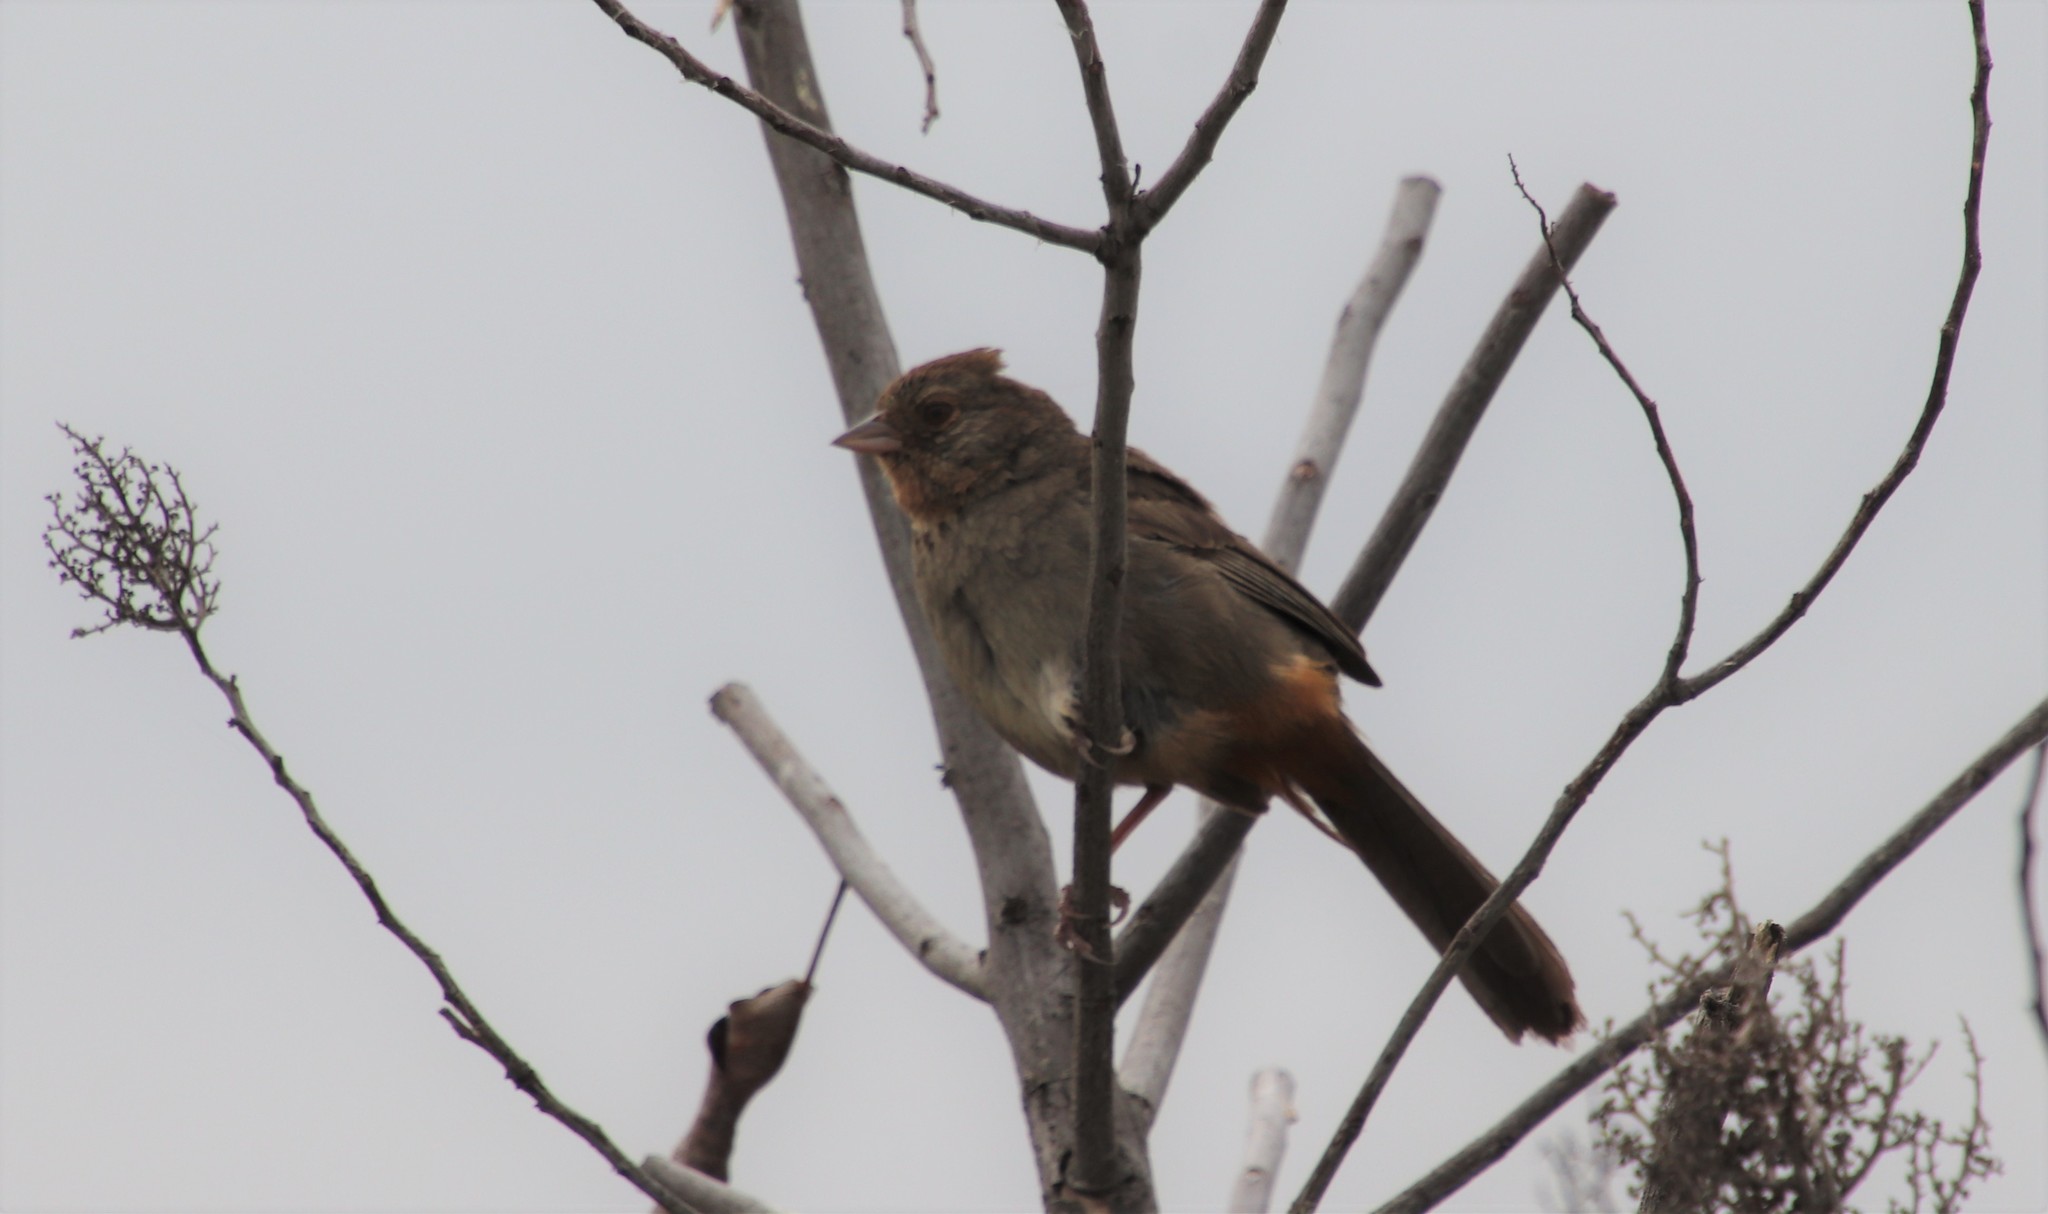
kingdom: Animalia
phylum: Chordata
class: Aves
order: Passeriformes
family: Passerellidae
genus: Melozone
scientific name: Melozone crissalis
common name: California towhee
